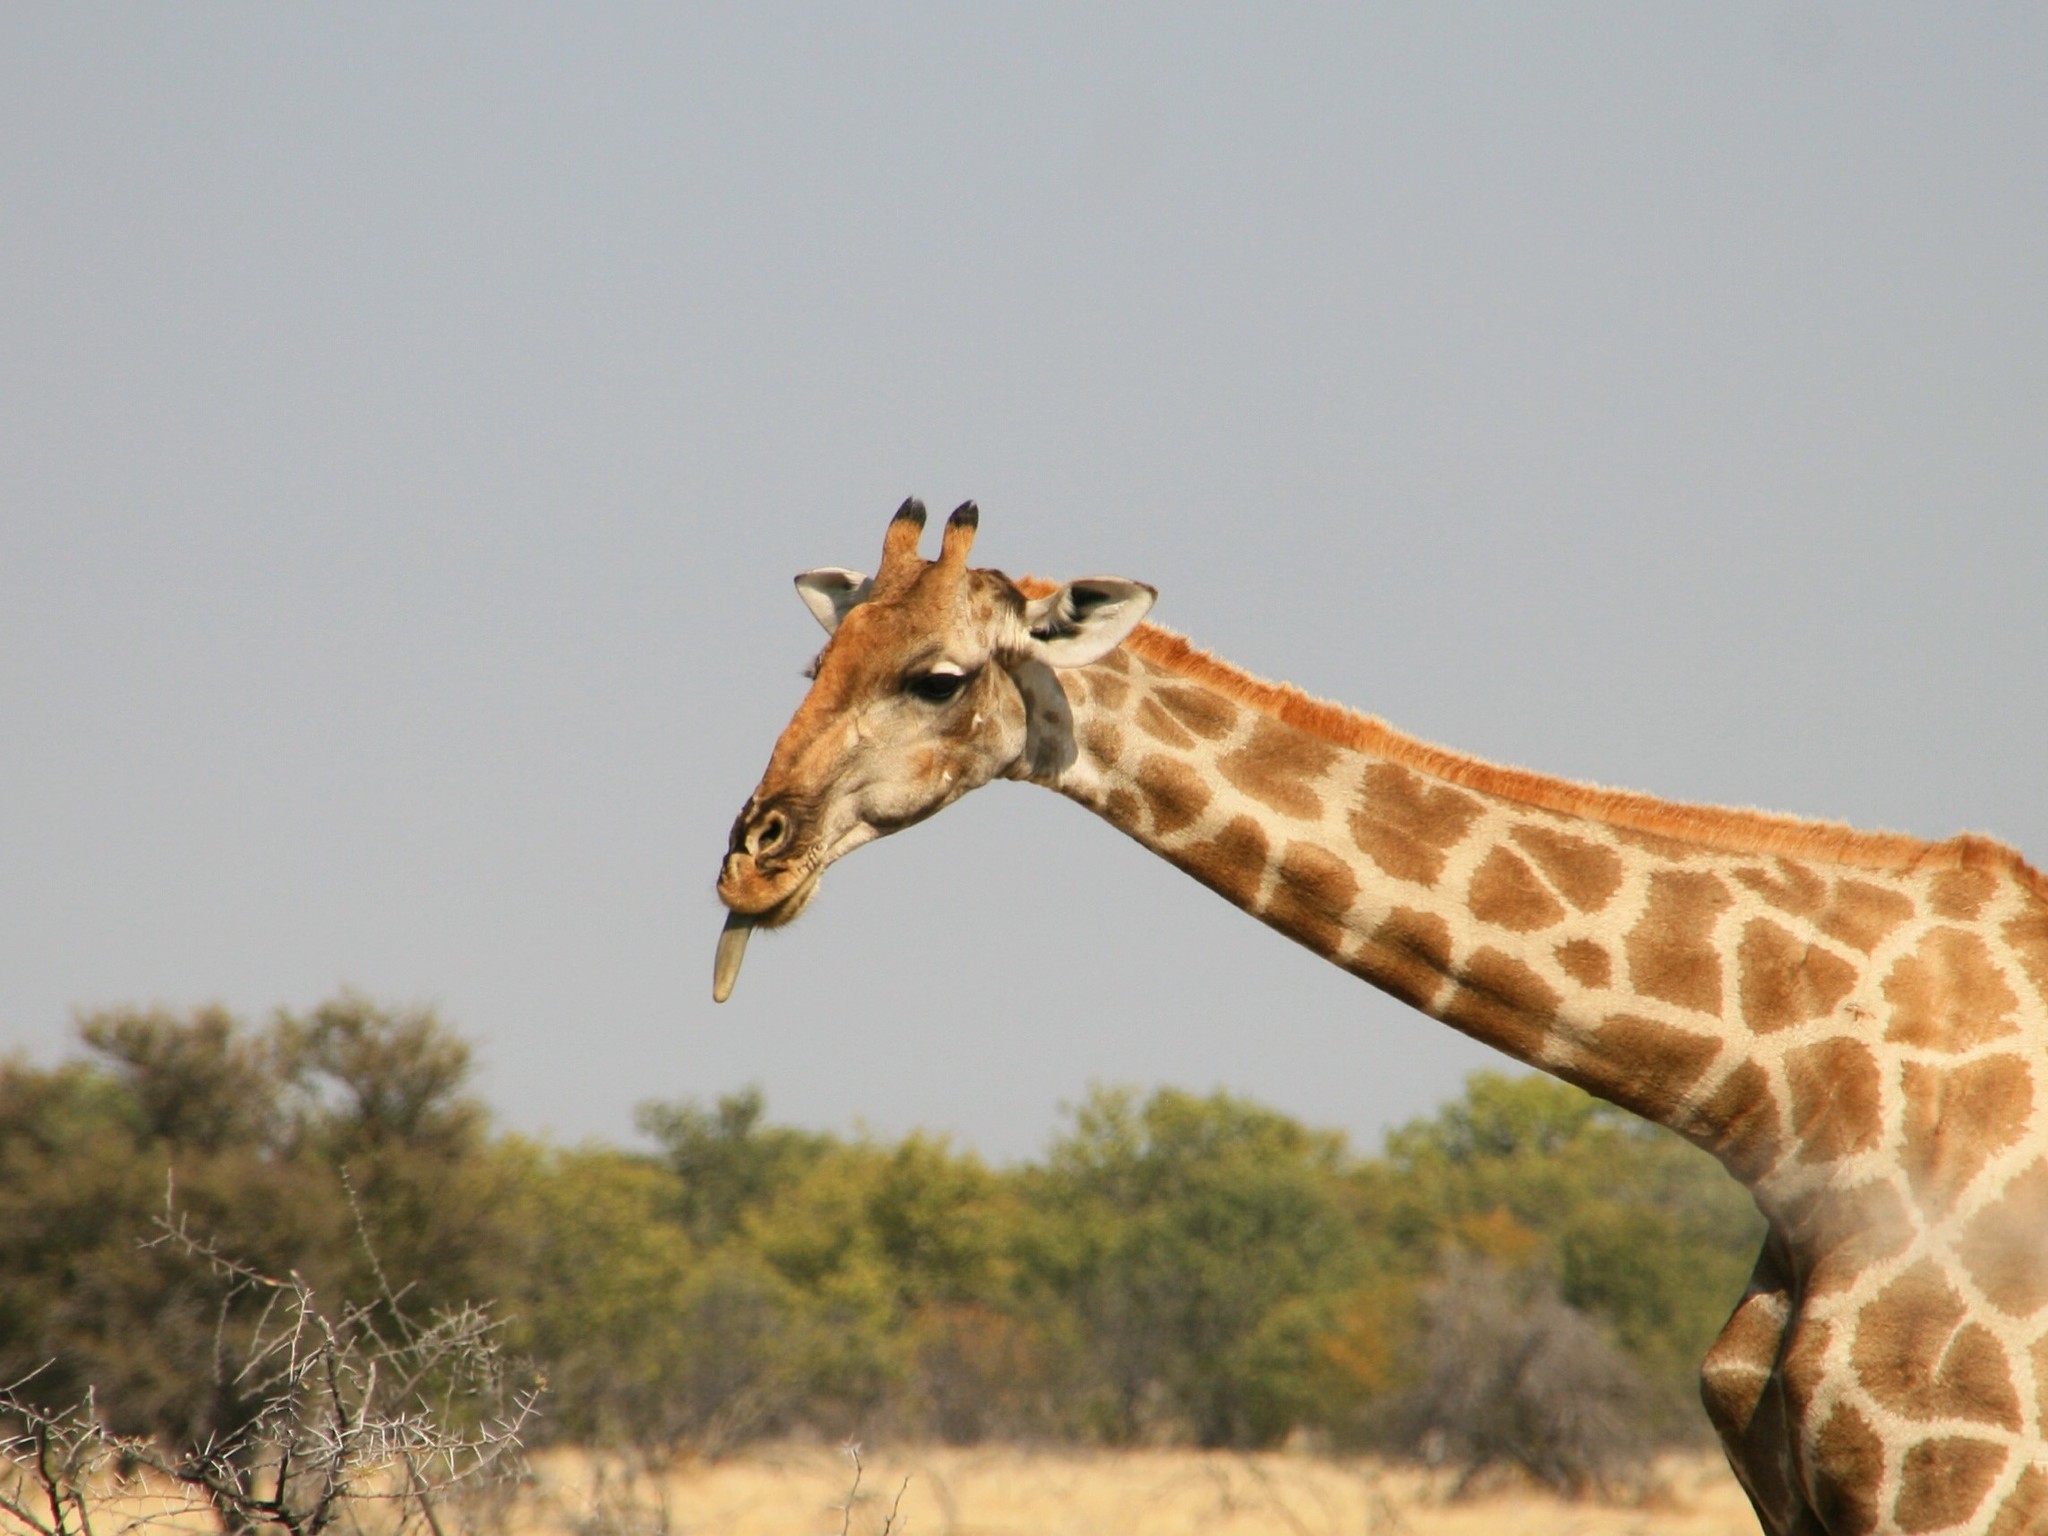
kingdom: Animalia
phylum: Chordata
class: Mammalia
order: Artiodactyla
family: Giraffidae
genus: Giraffa
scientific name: Giraffa giraffa
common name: Southern giraffe
